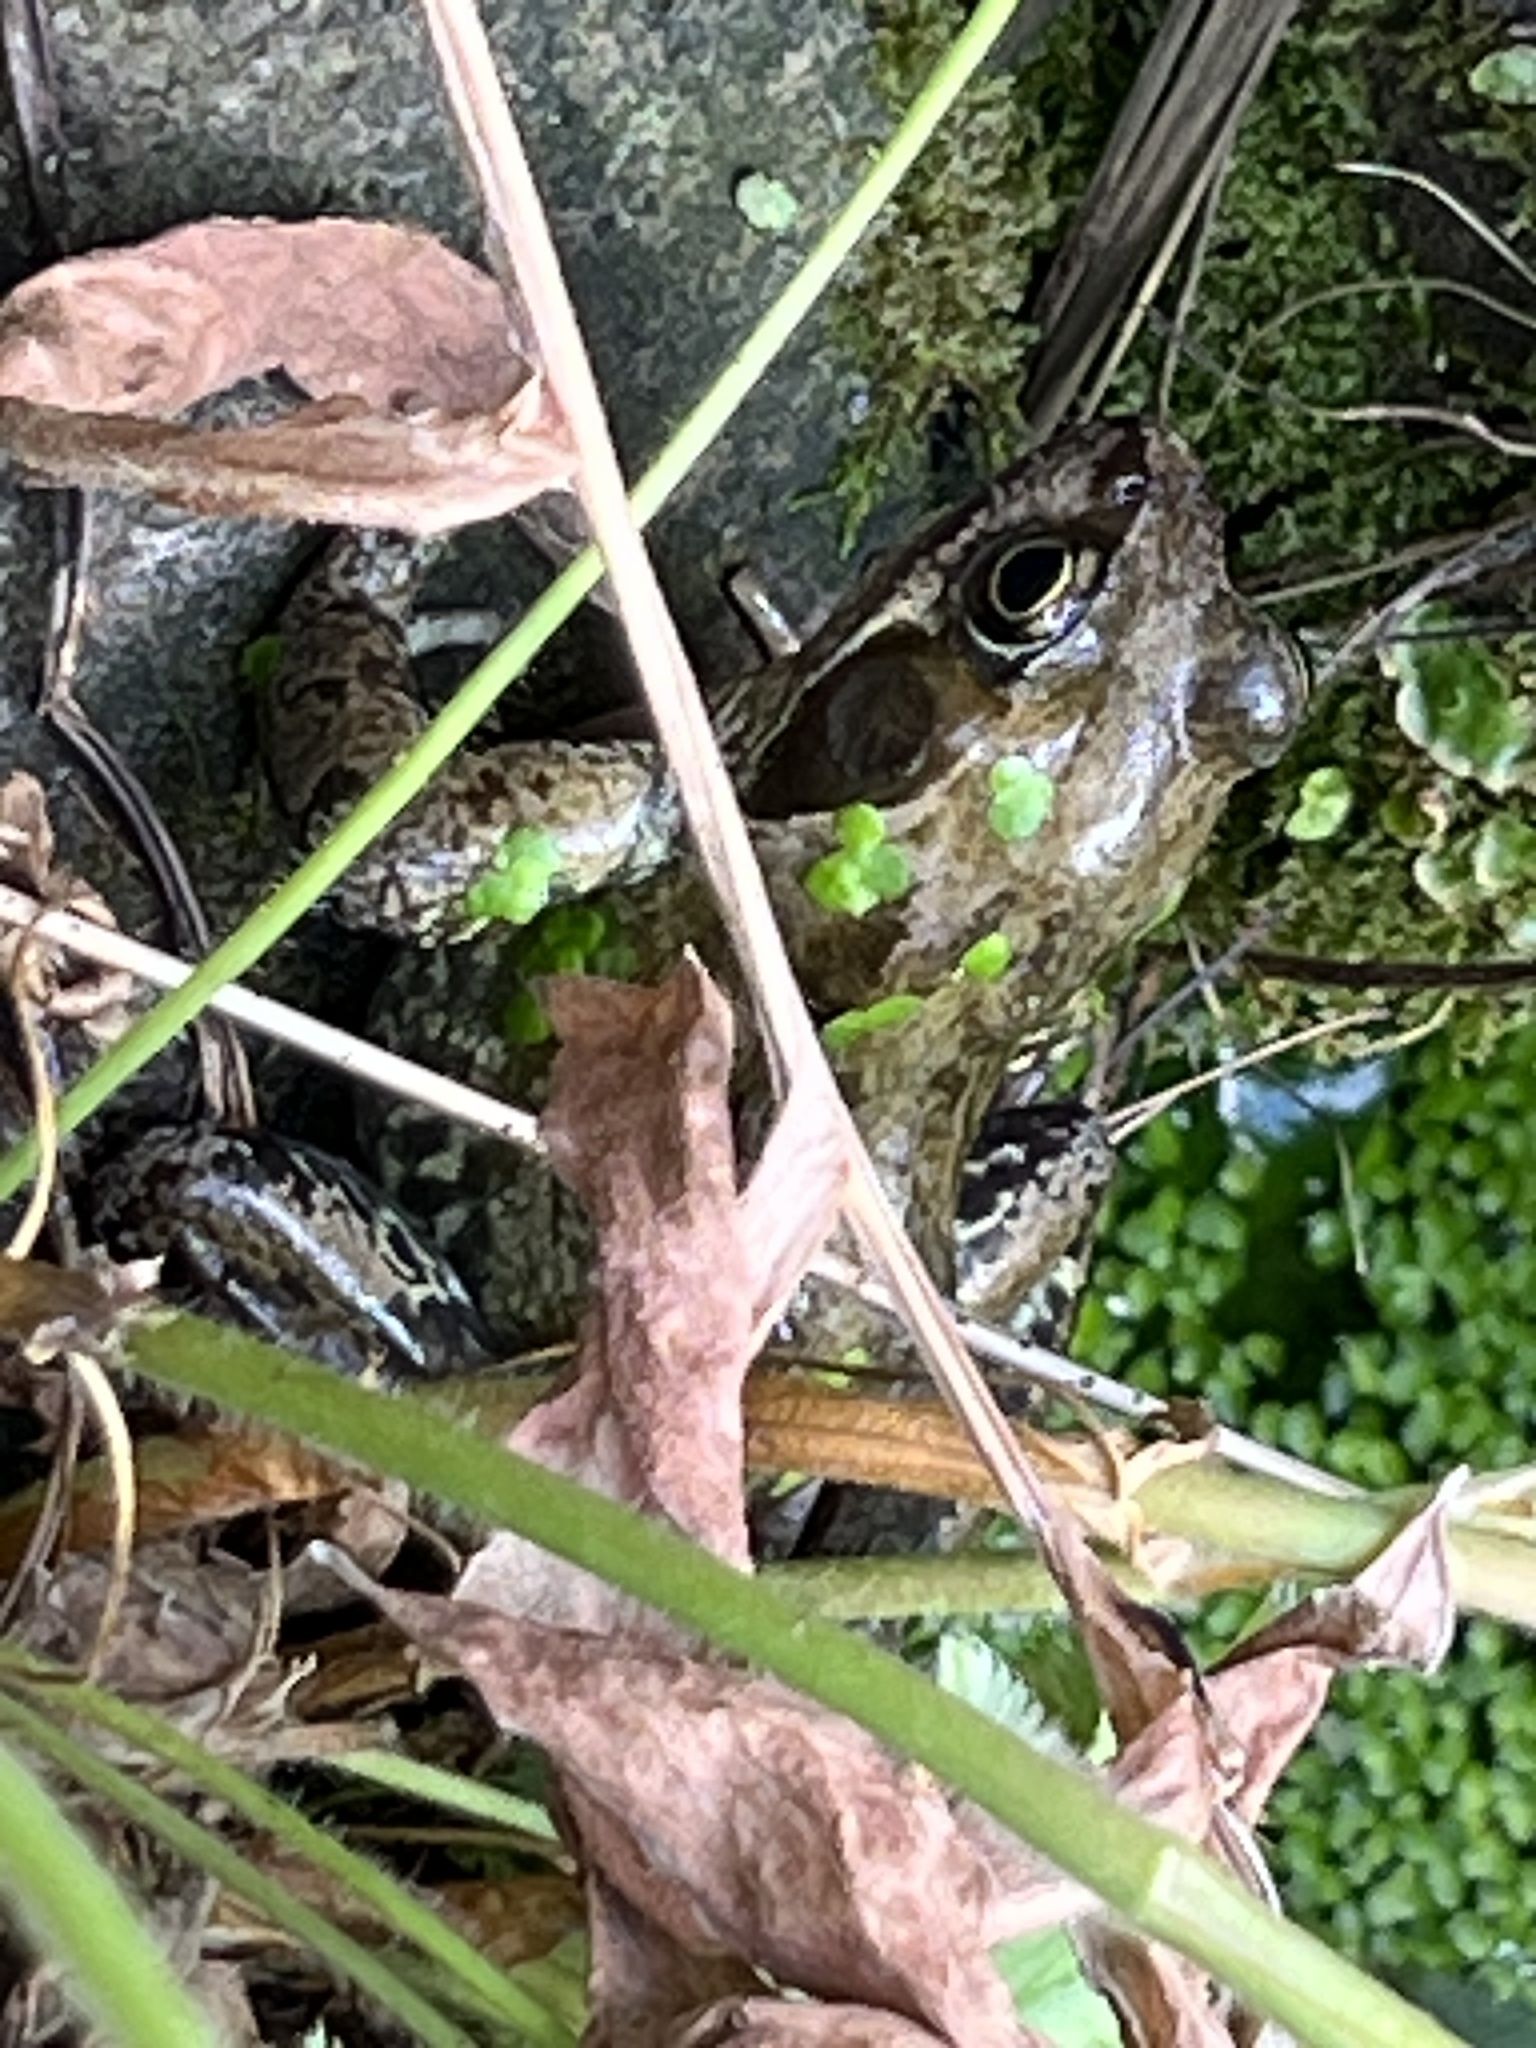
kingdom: Animalia
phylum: Chordata
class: Amphibia
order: Anura
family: Ranidae
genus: Rana
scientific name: Rana temporaria
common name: Common frog
